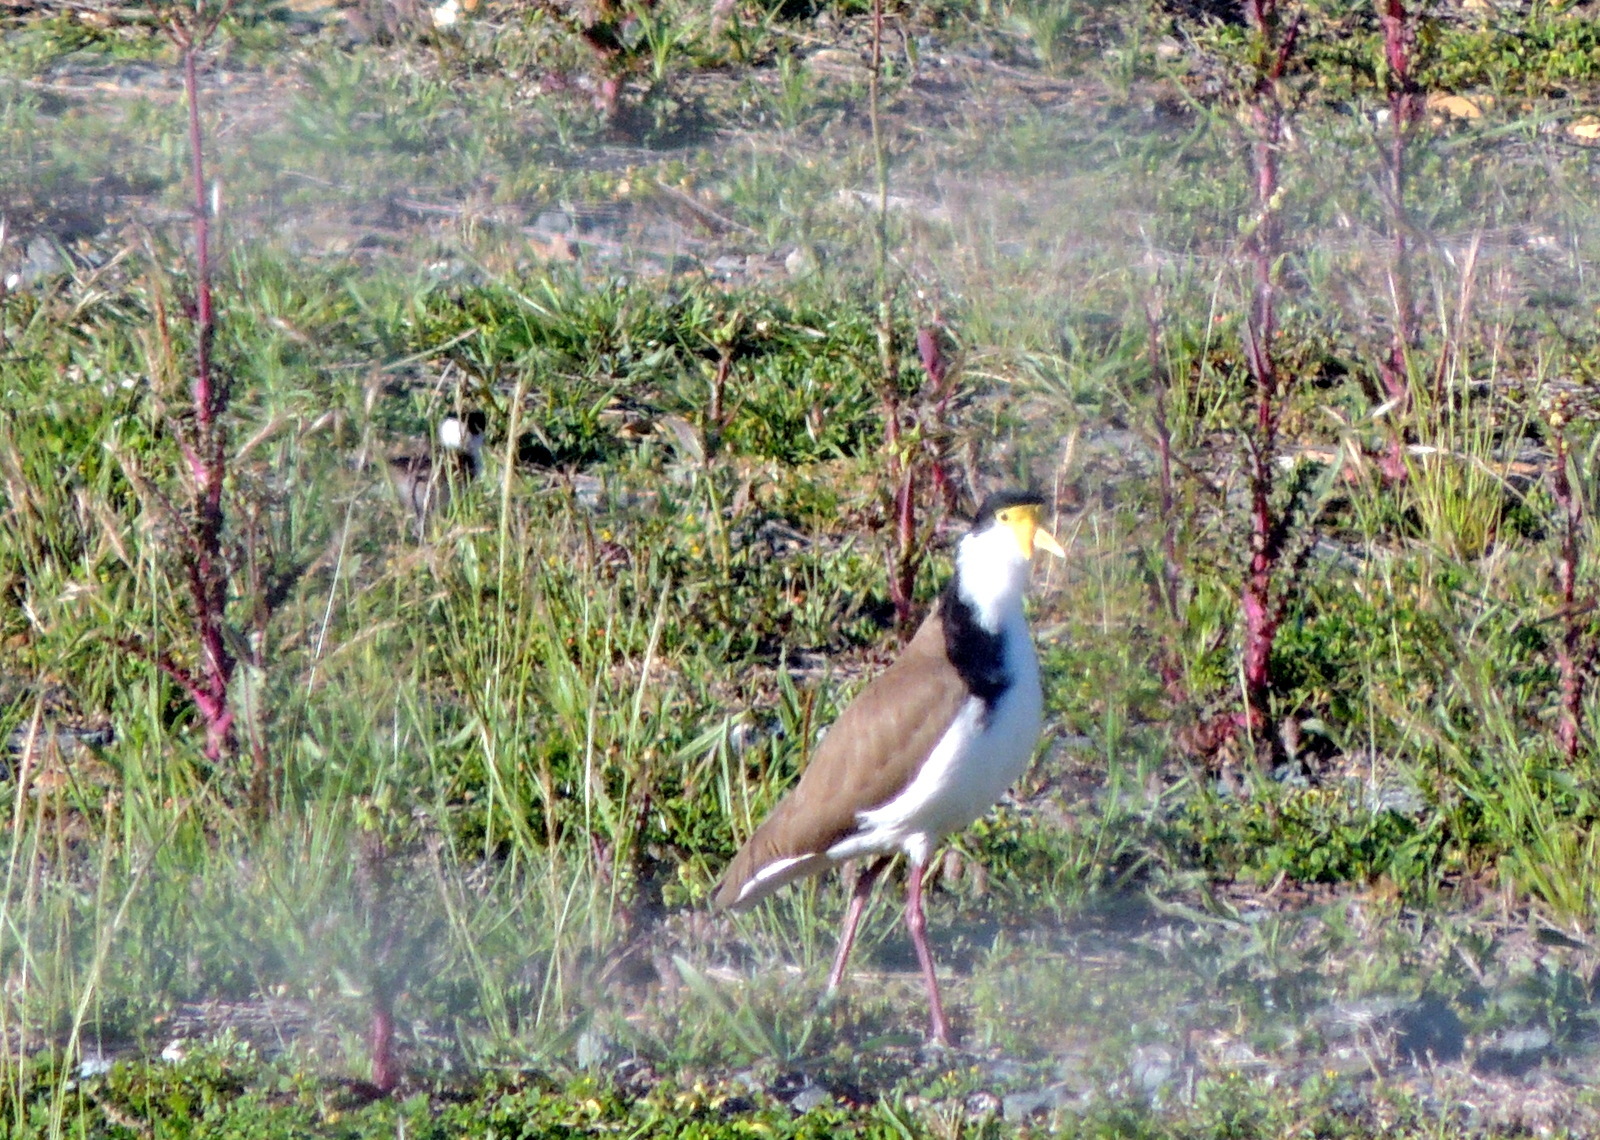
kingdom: Animalia
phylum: Chordata
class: Aves
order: Charadriiformes
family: Charadriidae
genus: Vanellus
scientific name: Vanellus miles
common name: Masked lapwing
